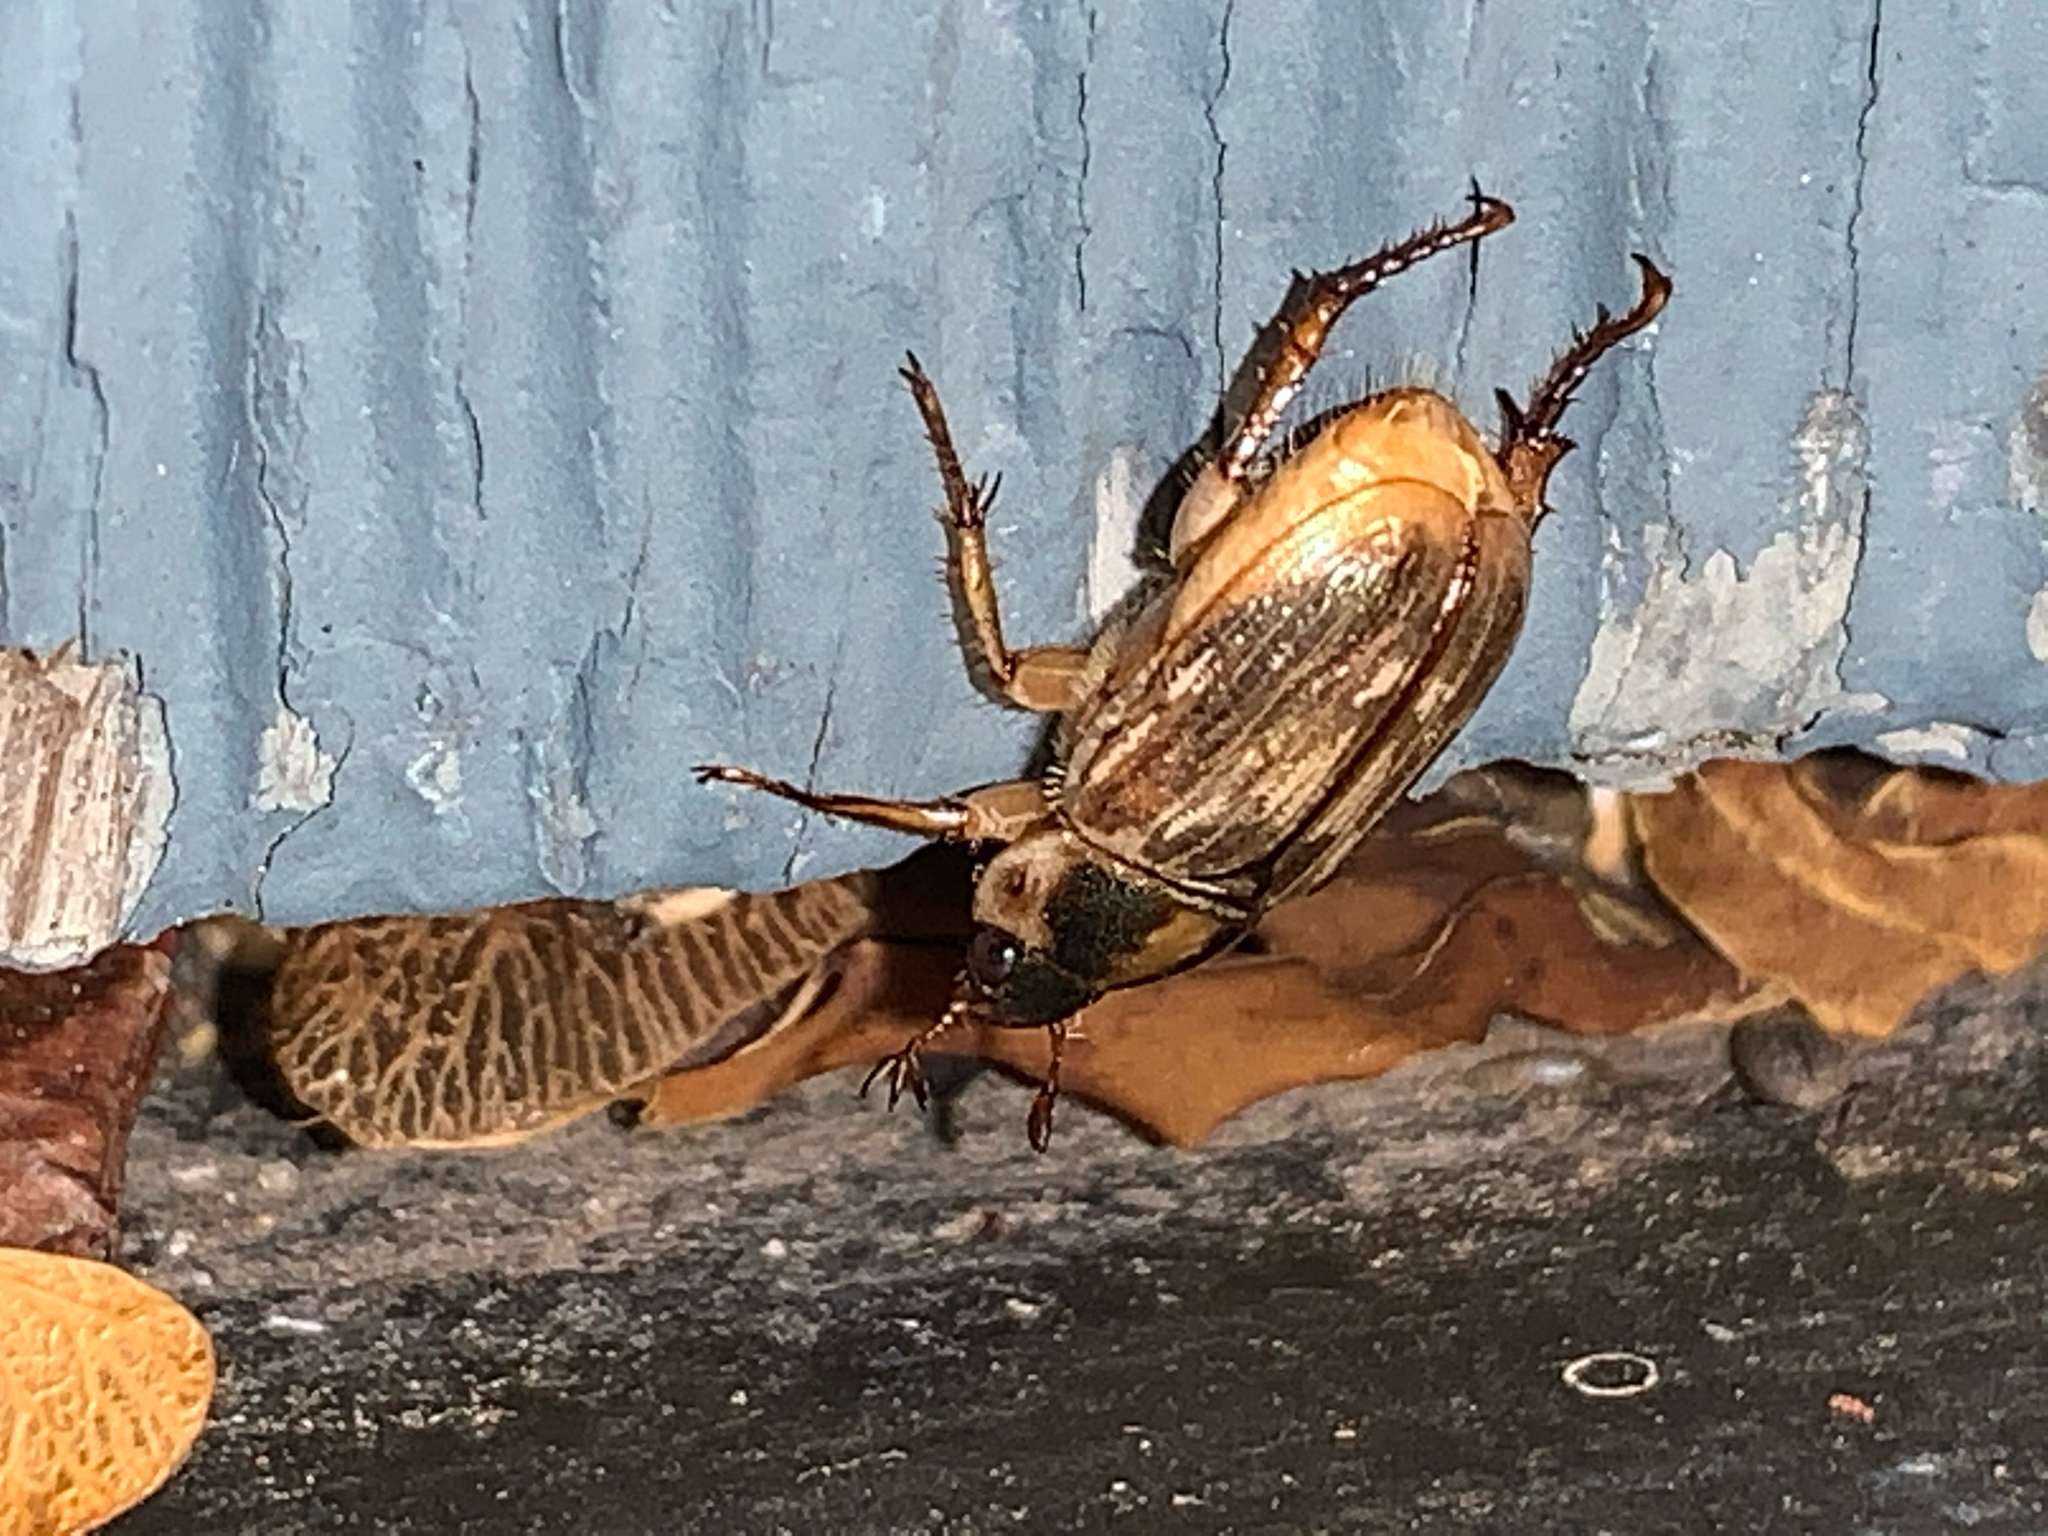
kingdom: Animalia
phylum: Arthropoda
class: Insecta
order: Coleoptera
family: Scarabaeidae
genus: Exomala
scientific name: Exomala orientalis
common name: Oriental beetle
